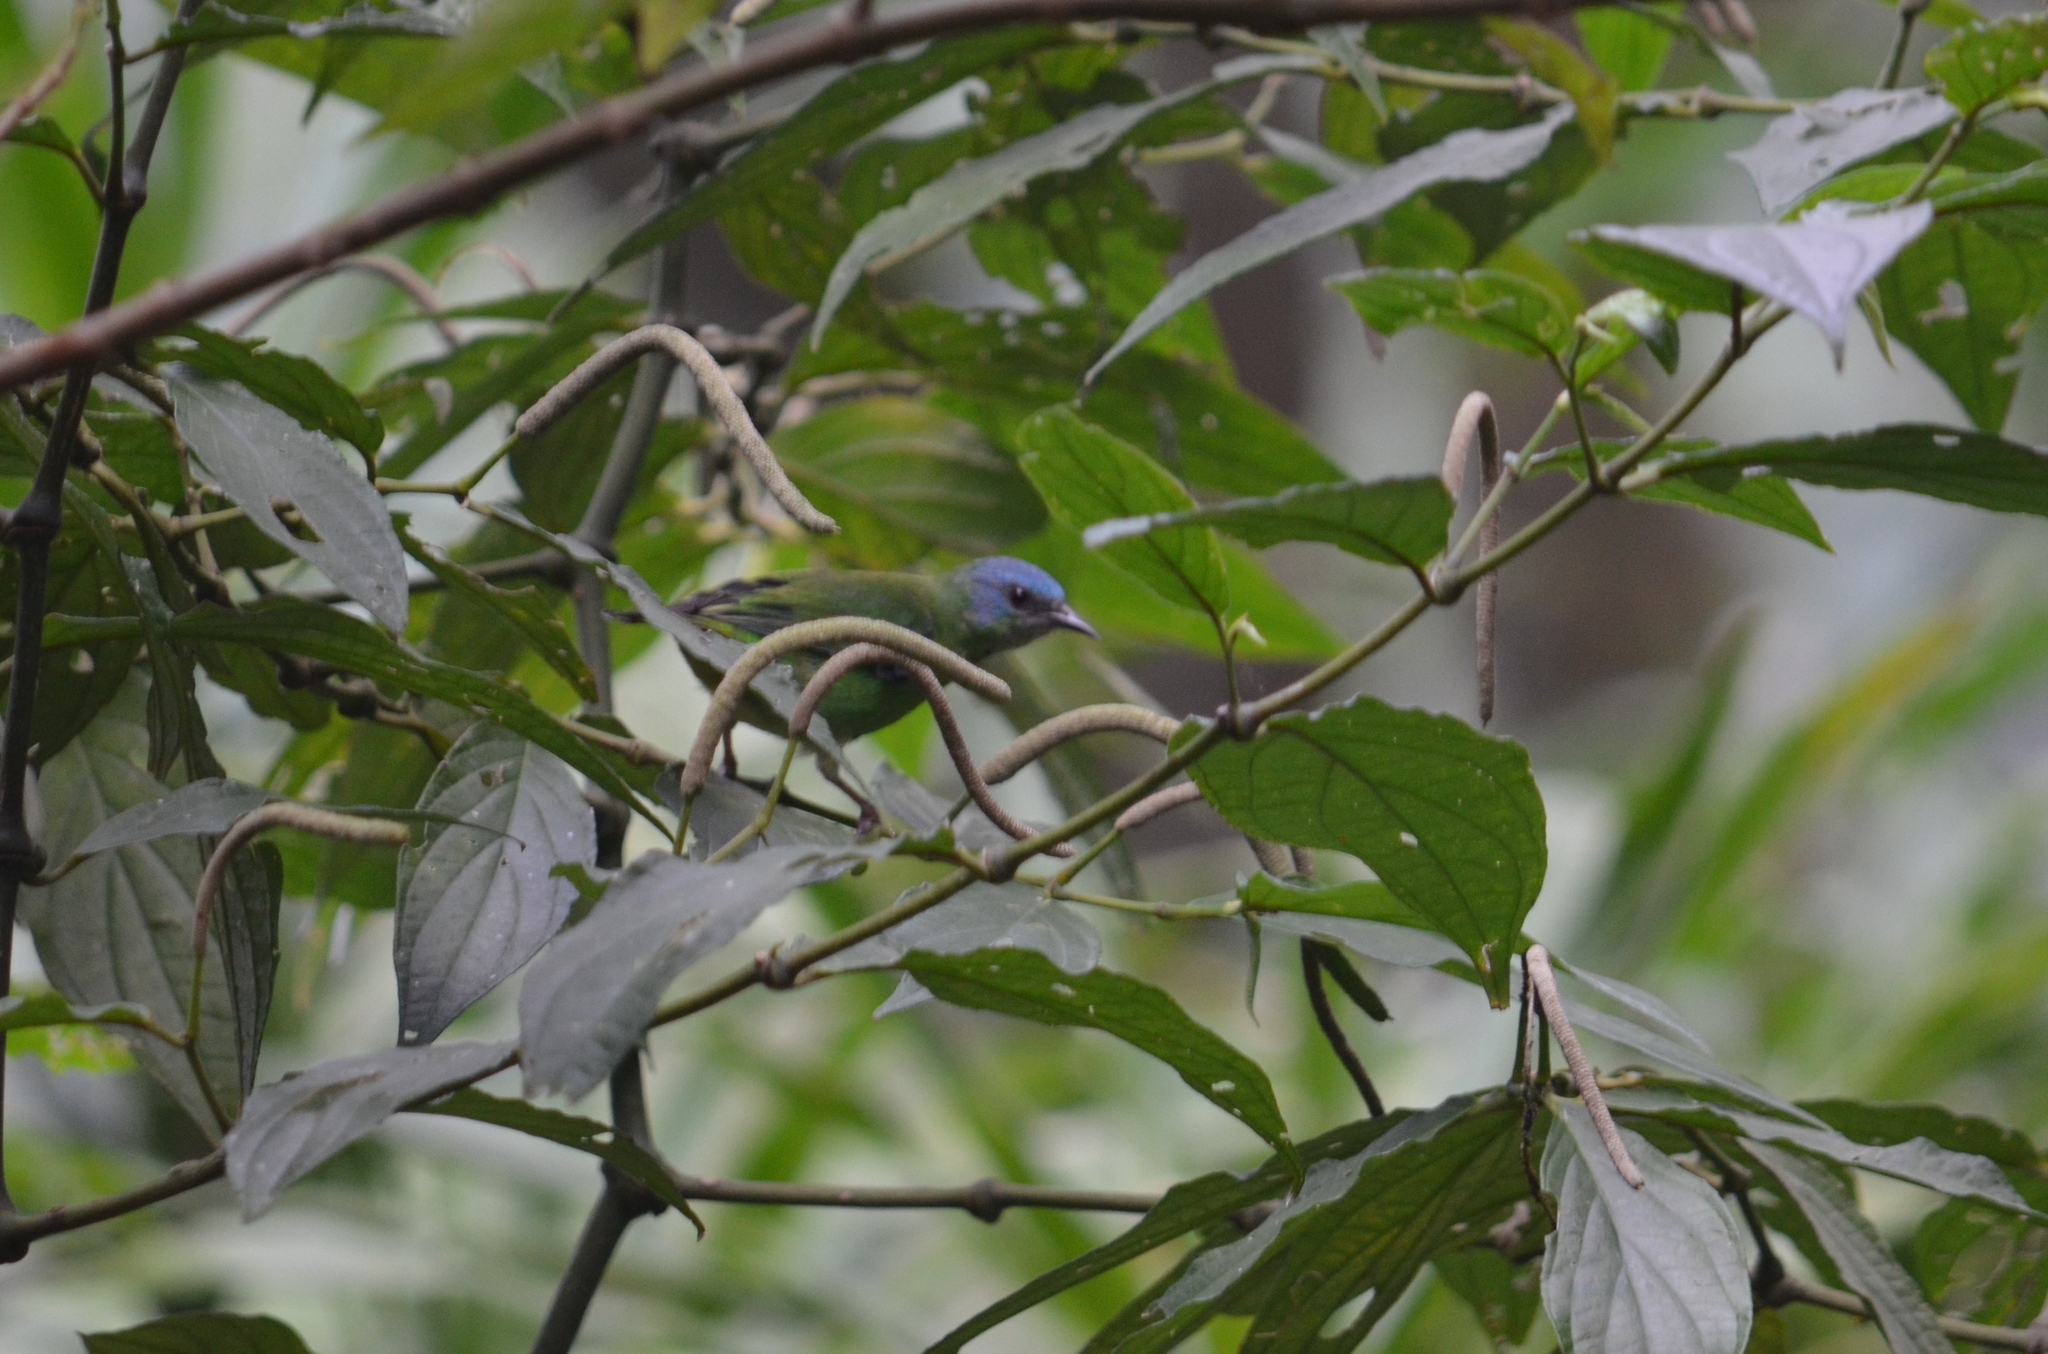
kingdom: Animalia
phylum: Chordata
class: Aves
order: Passeriformes
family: Thraupidae
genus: Dacnis
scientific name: Dacnis cayana
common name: Blue dacnis
